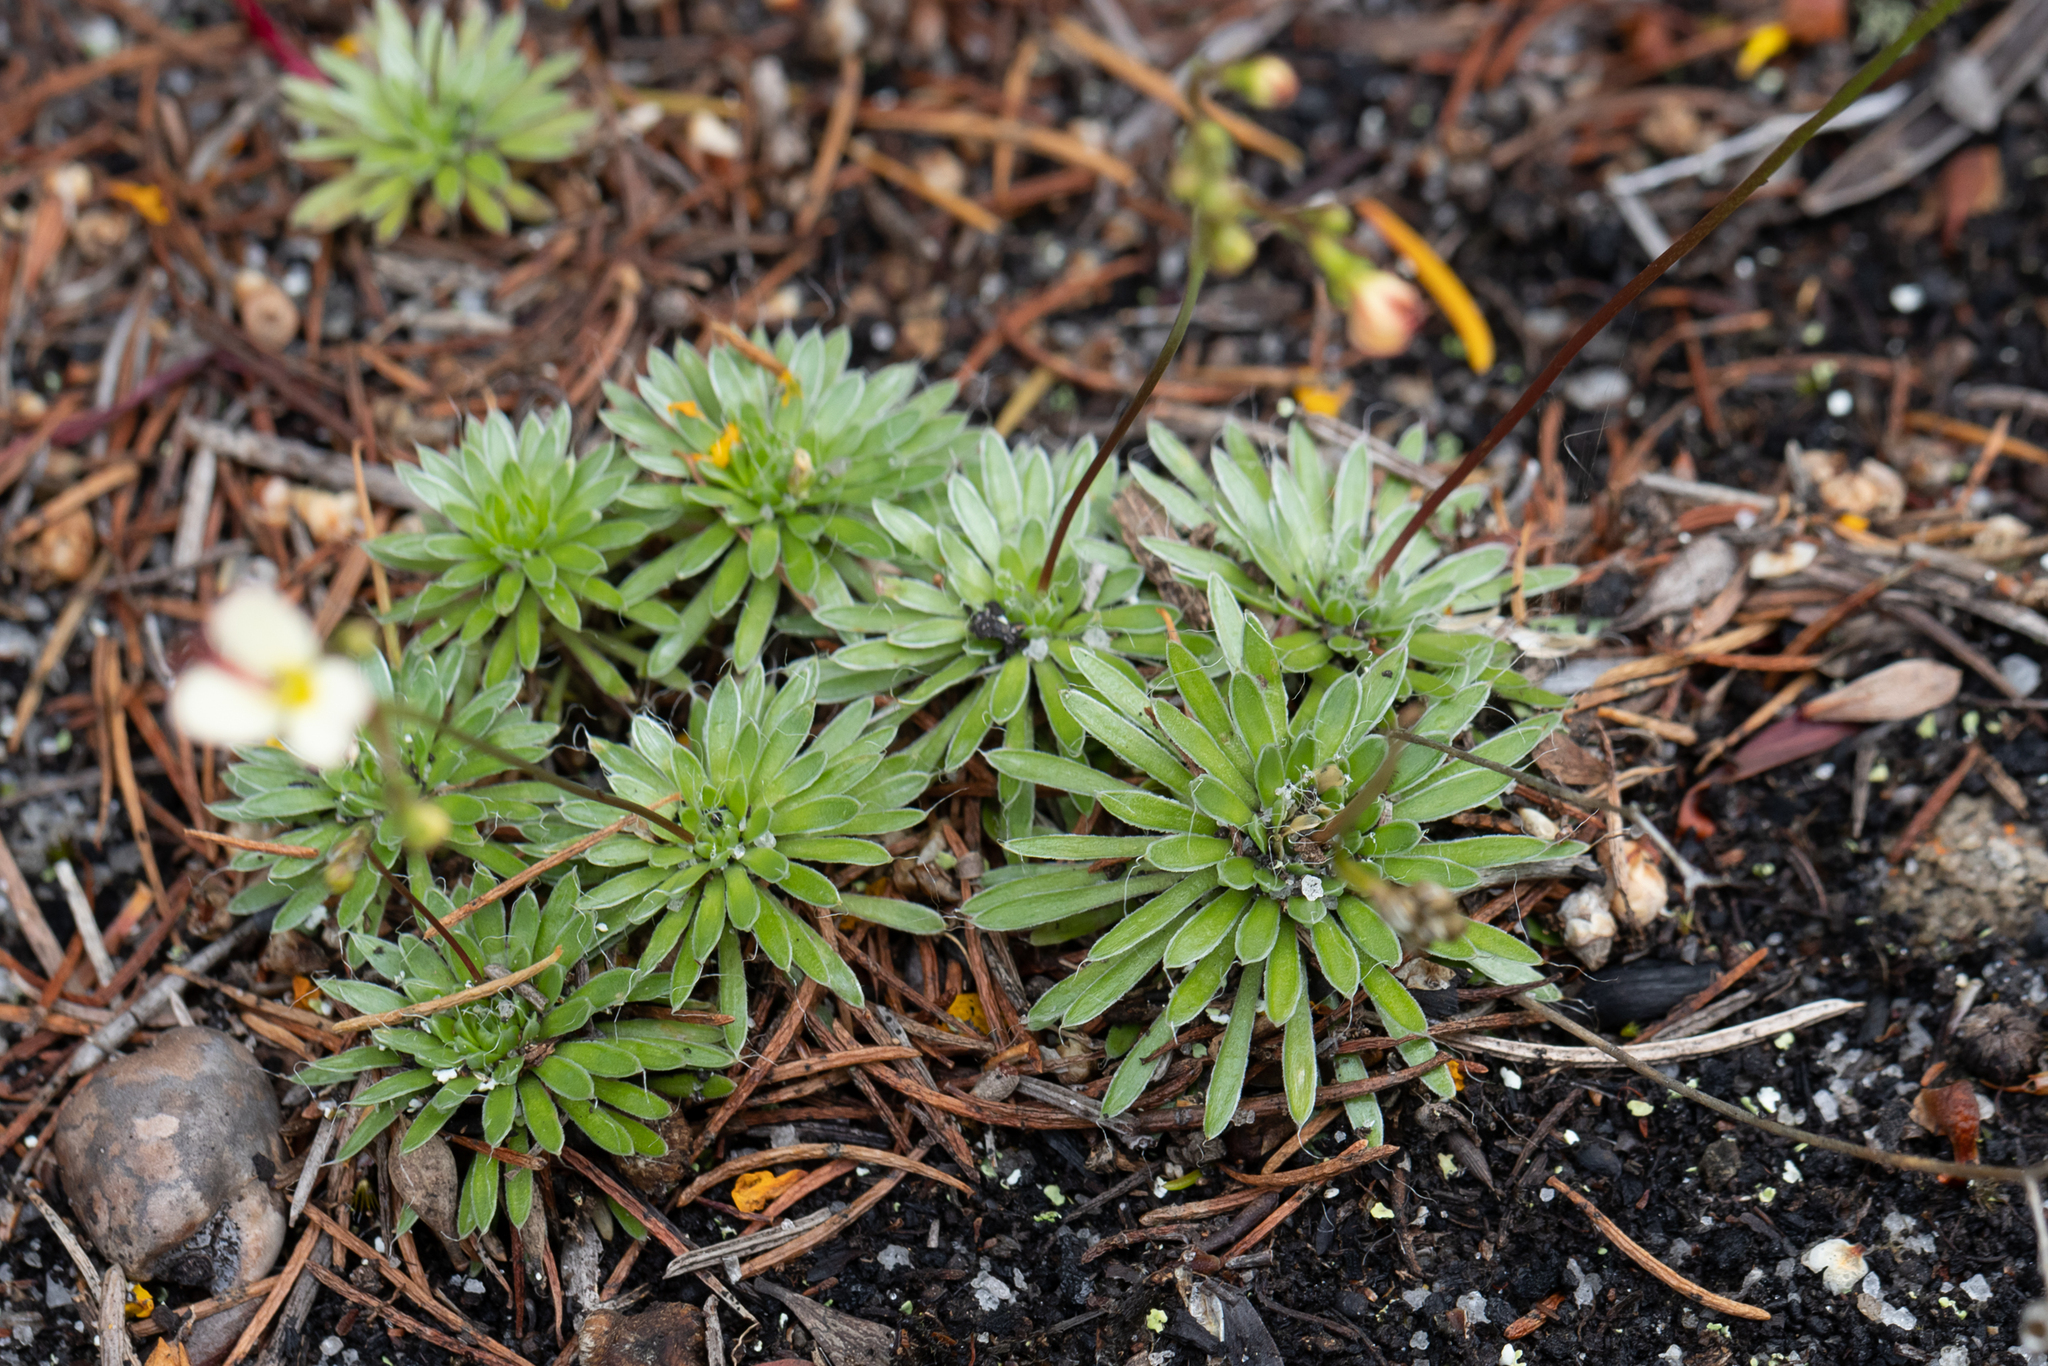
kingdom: Plantae
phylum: Tracheophyta
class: Magnoliopsida
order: Asterales
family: Stylidiaceae
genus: Stylidium
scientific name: Stylidium piliferum
